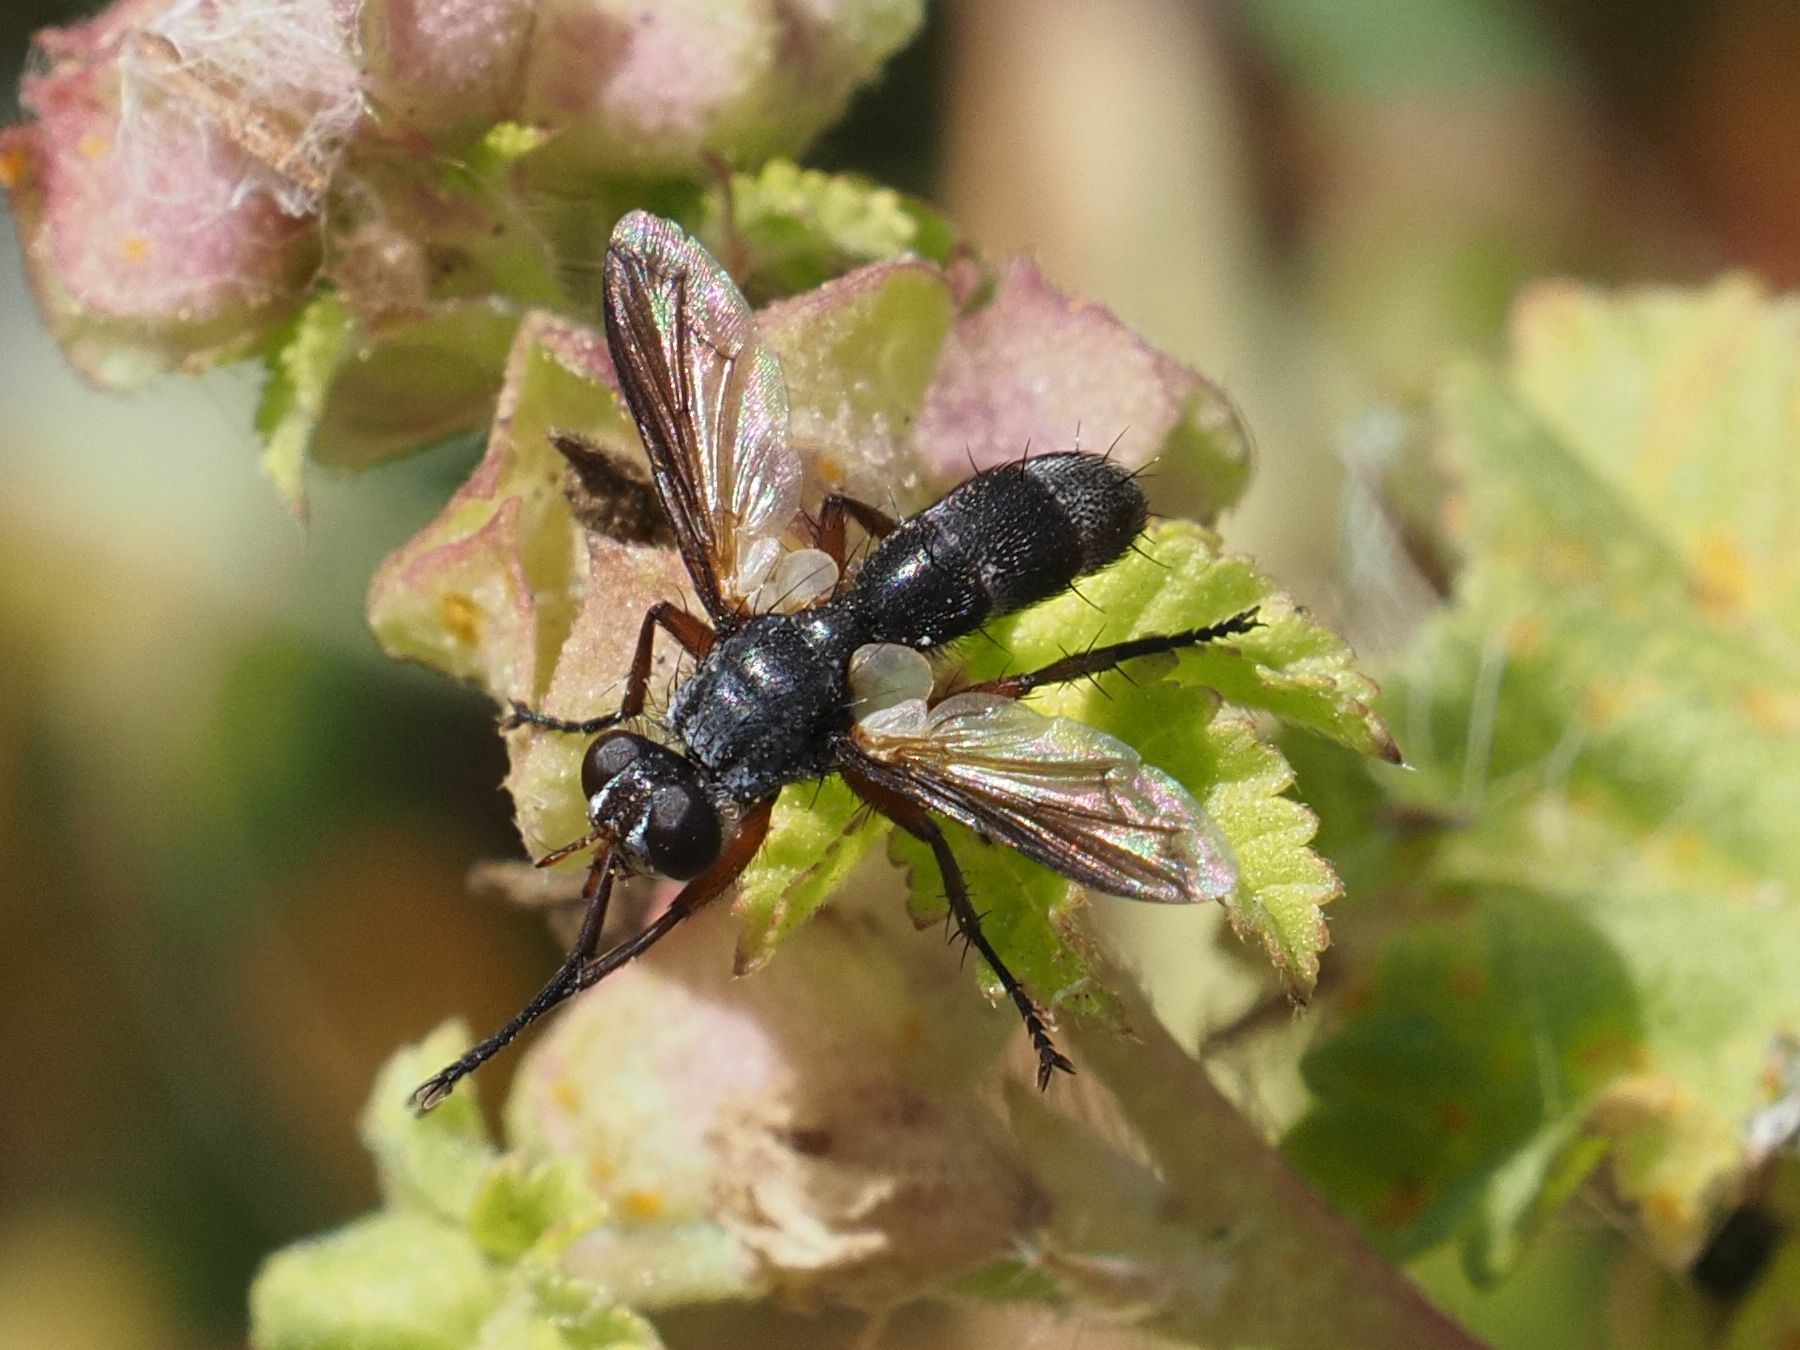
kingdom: Animalia
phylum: Arthropoda
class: Insecta
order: Diptera
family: Tachinidae
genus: Cylindromyia
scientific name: Cylindromyia rufipes
